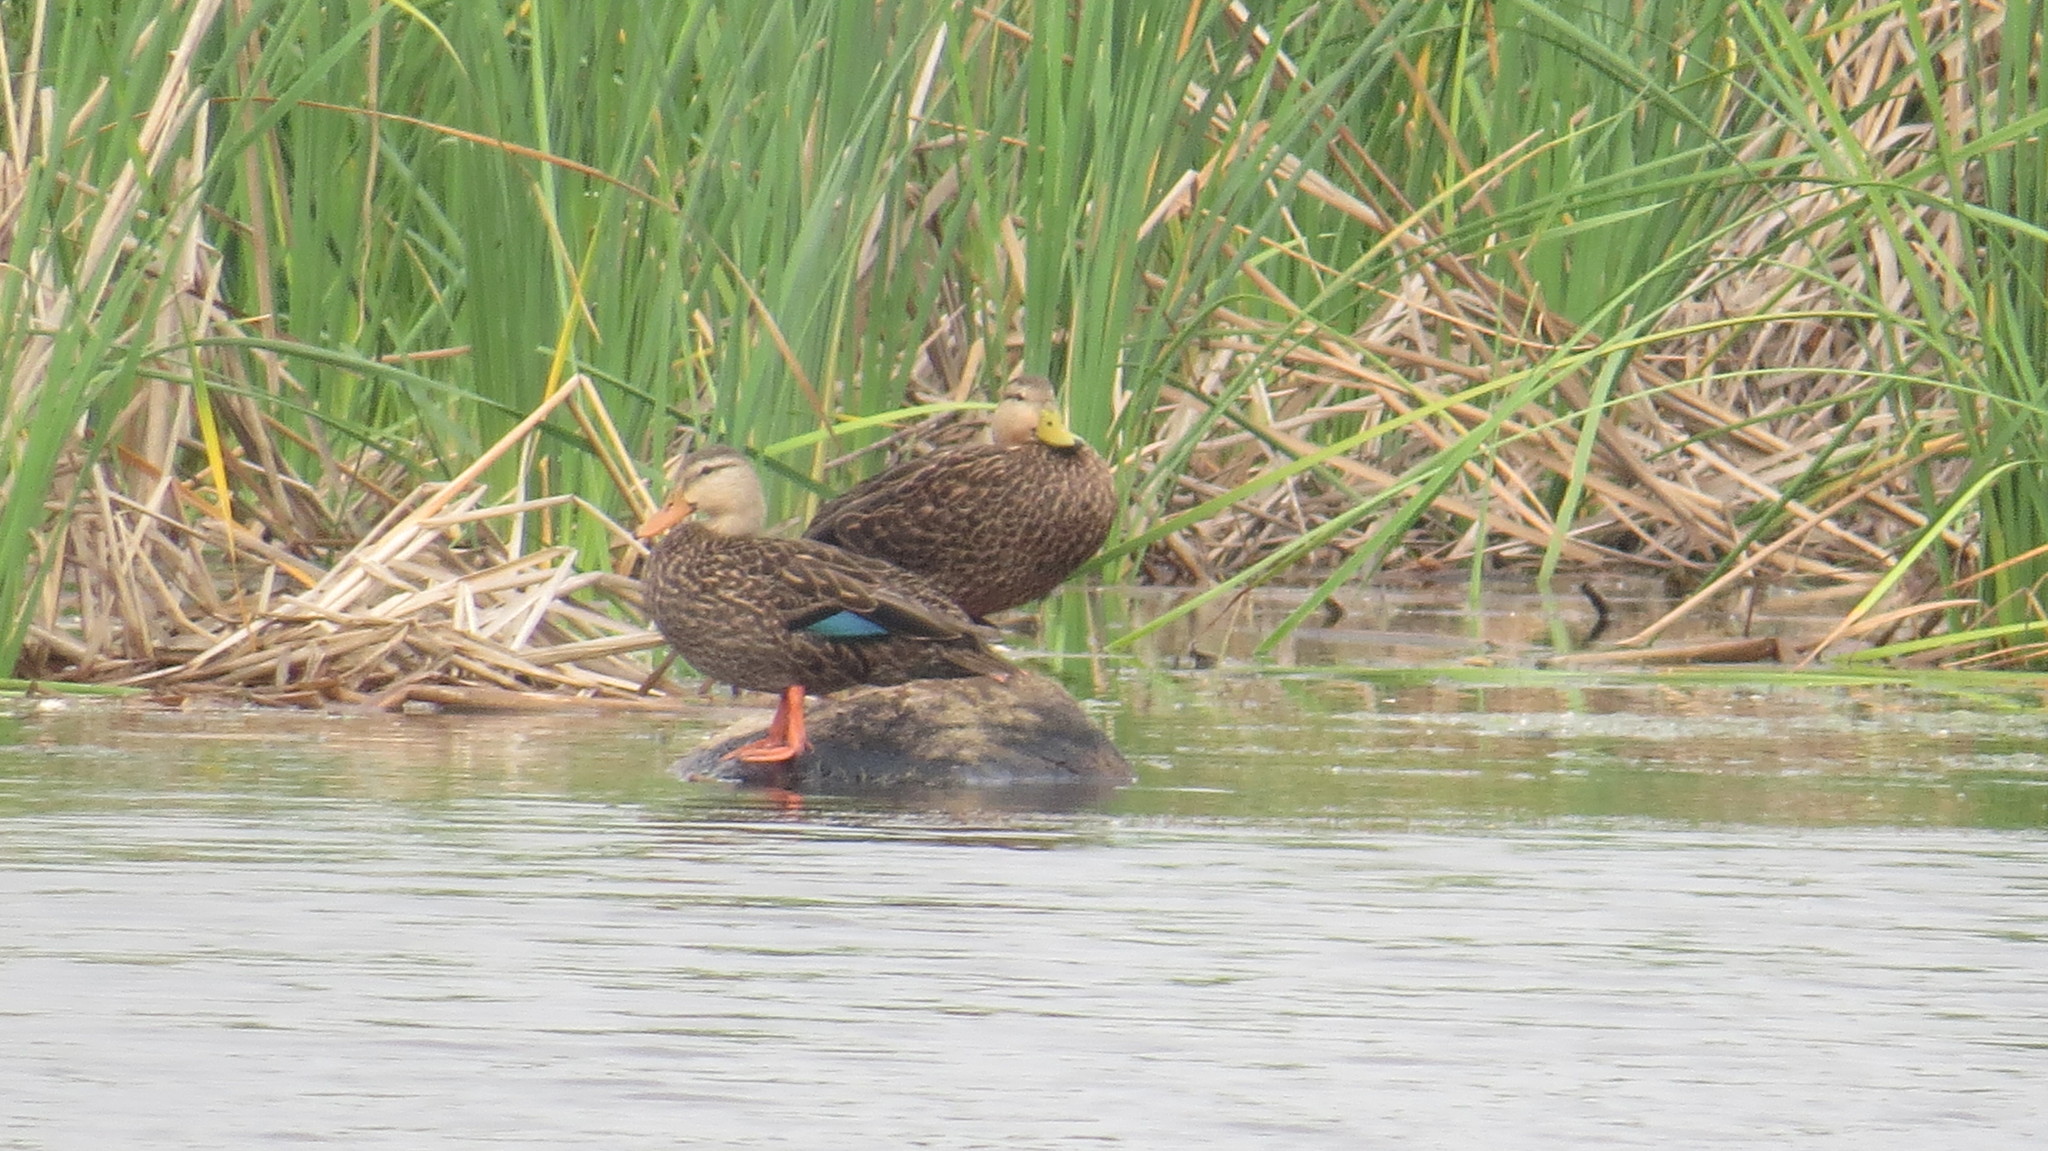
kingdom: Animalia
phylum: Chordata
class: Aves
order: Anseriformes
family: Anatidae
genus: Anas
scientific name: Anas fulvigula
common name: Mottled duck
